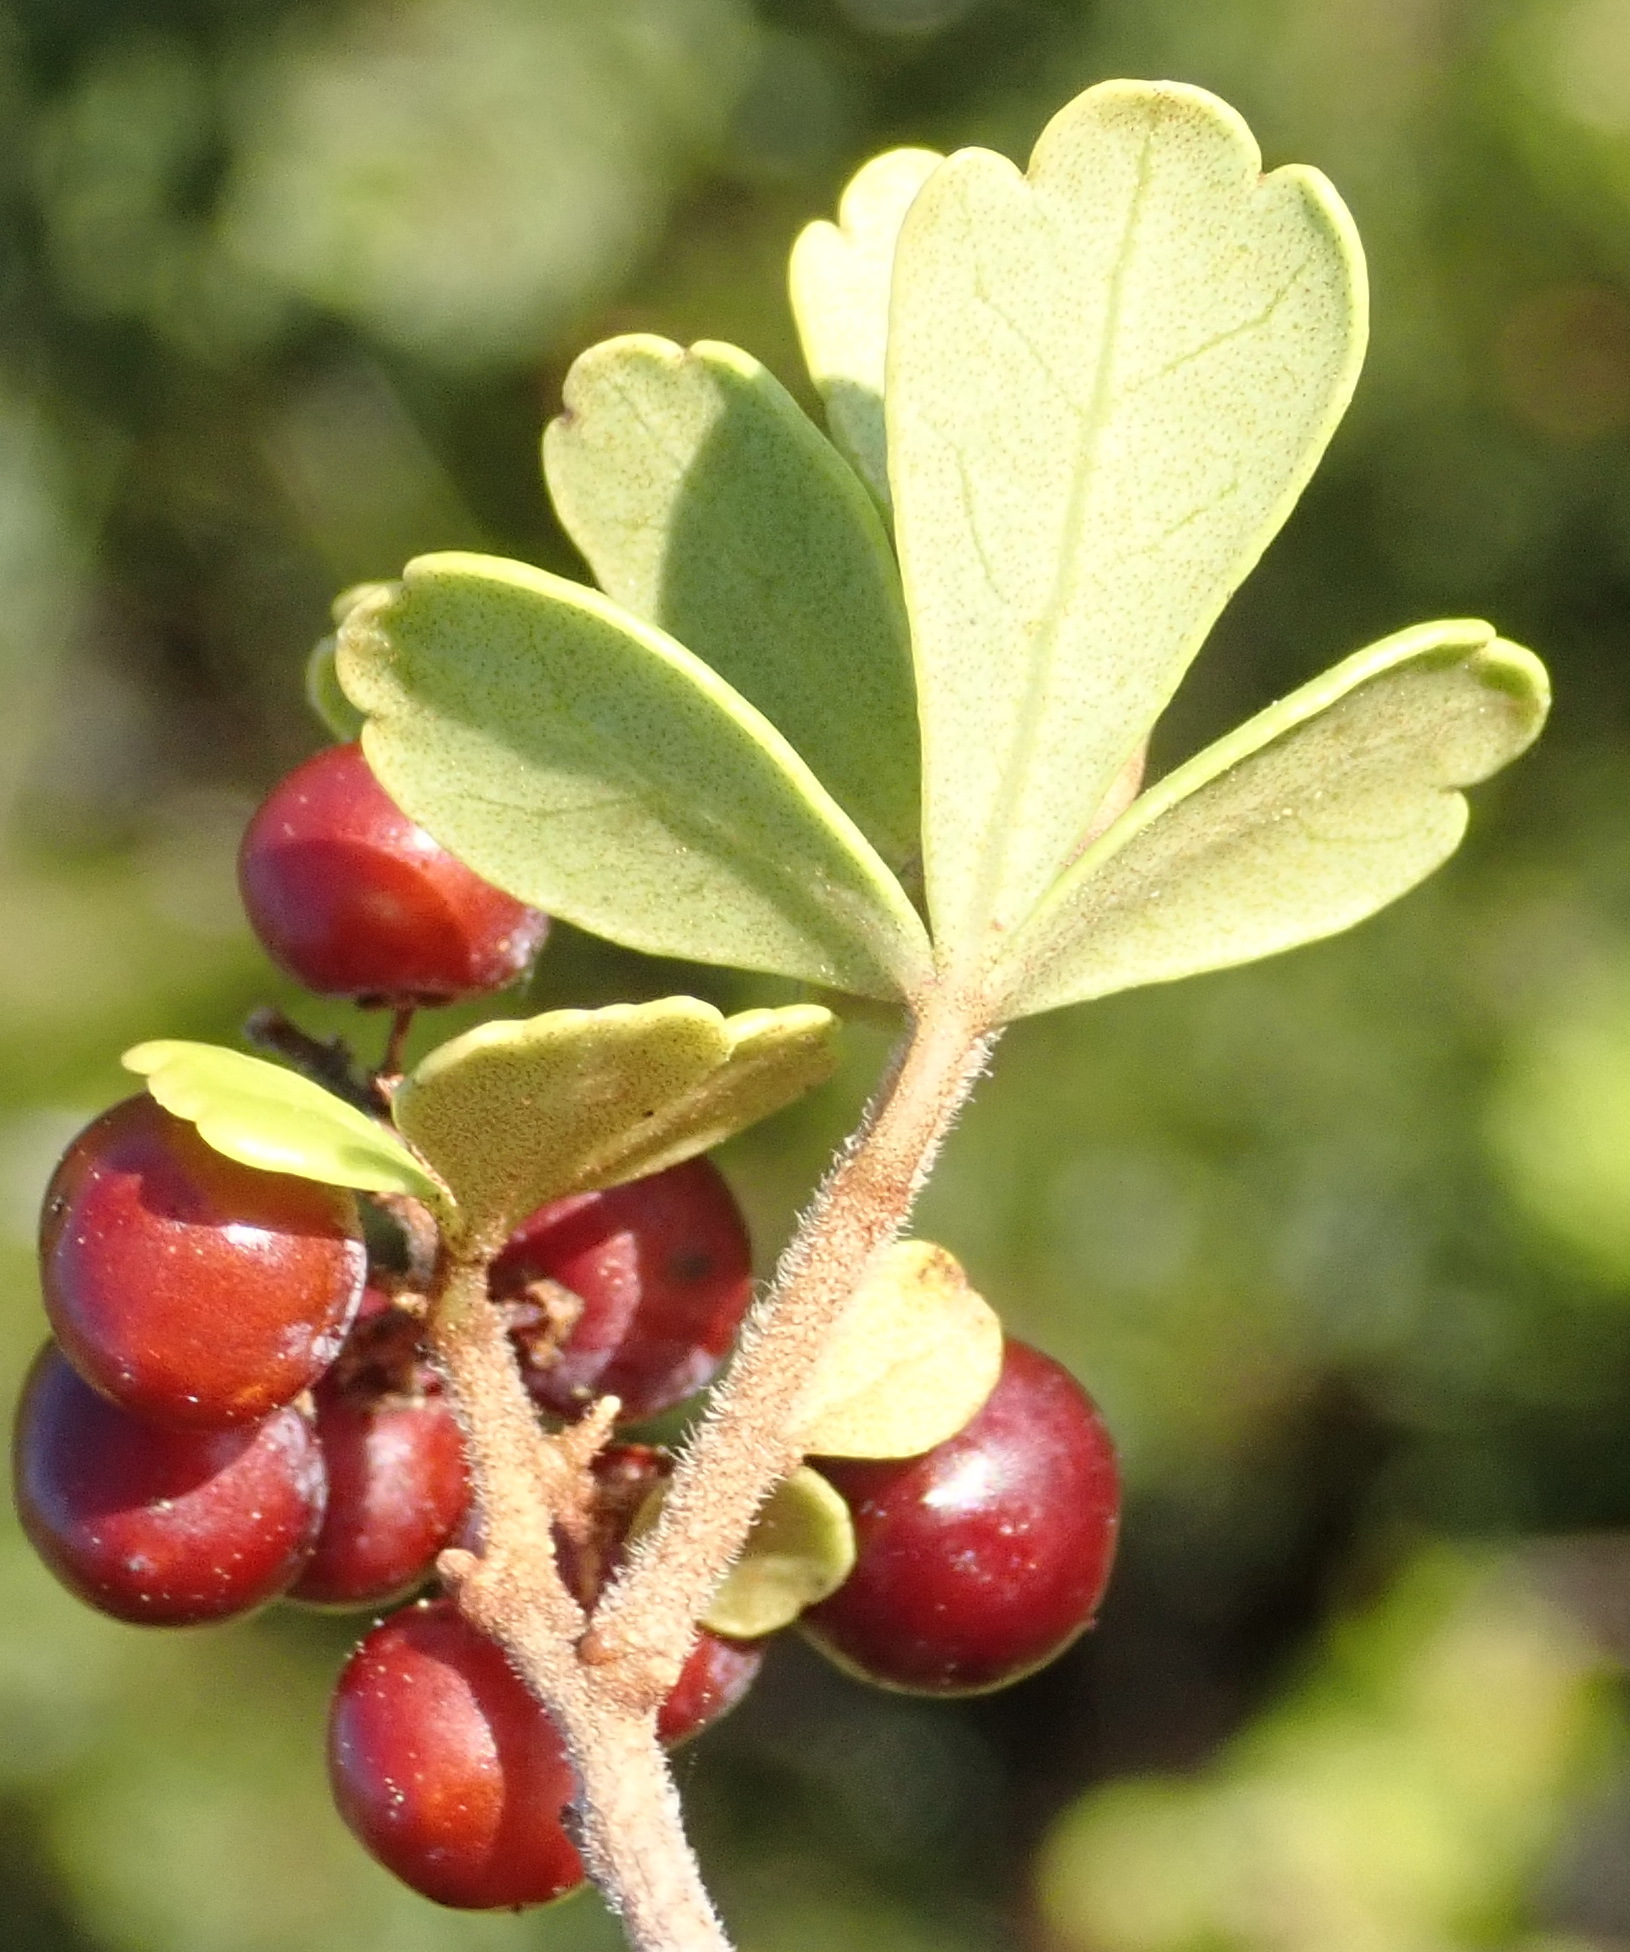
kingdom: Plantae
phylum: Tracheophyta
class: Magnoliopsida
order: Sapindales
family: Anacardiaceae
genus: Searsia
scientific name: Searsia crenata
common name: Crowberry
